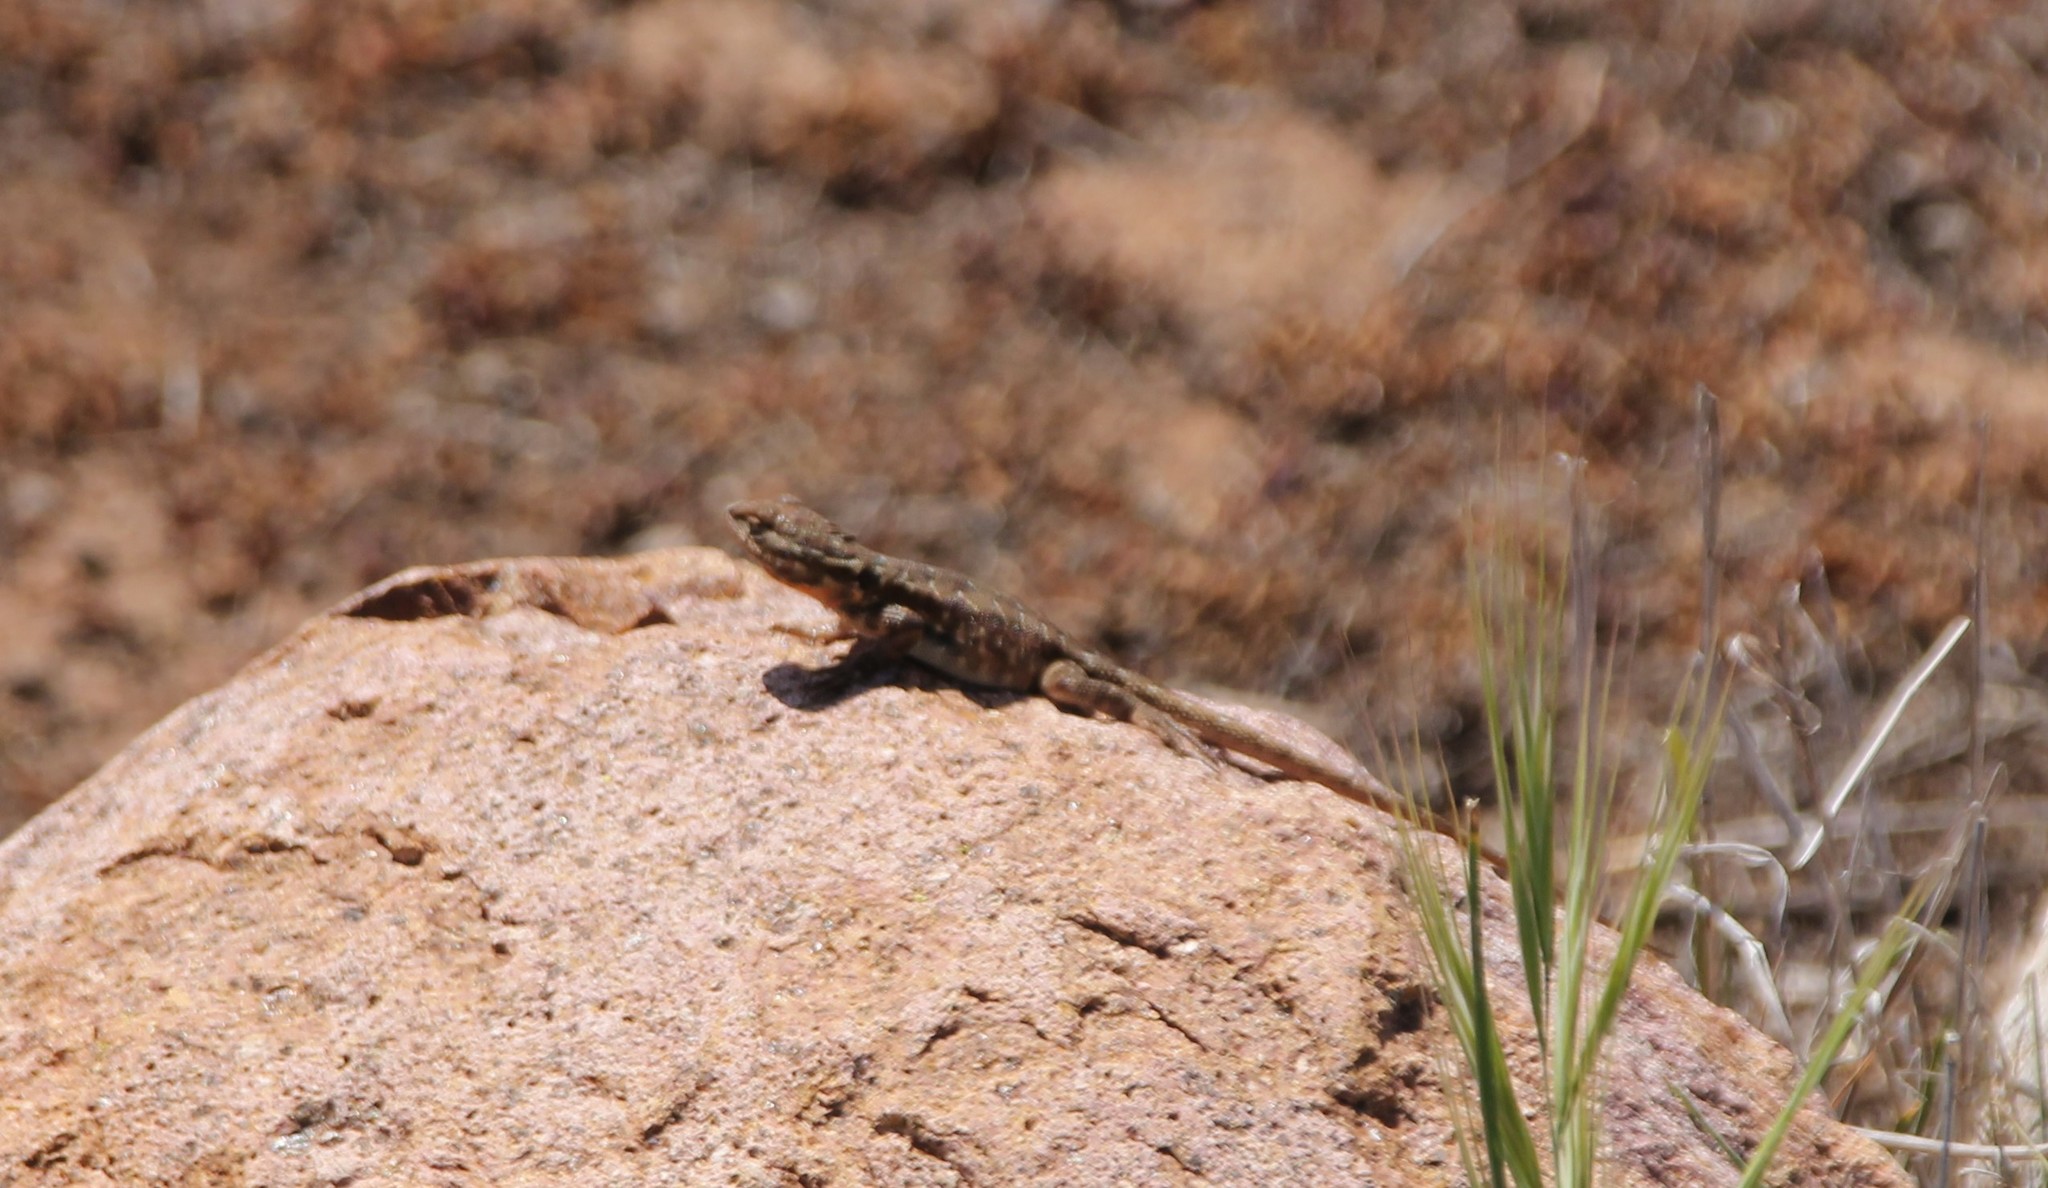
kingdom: Animalia
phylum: Chordata
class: Squamata
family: Phrynosomatidae
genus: Uta
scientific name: Uta stansburiana
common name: Side-blotched lizard
